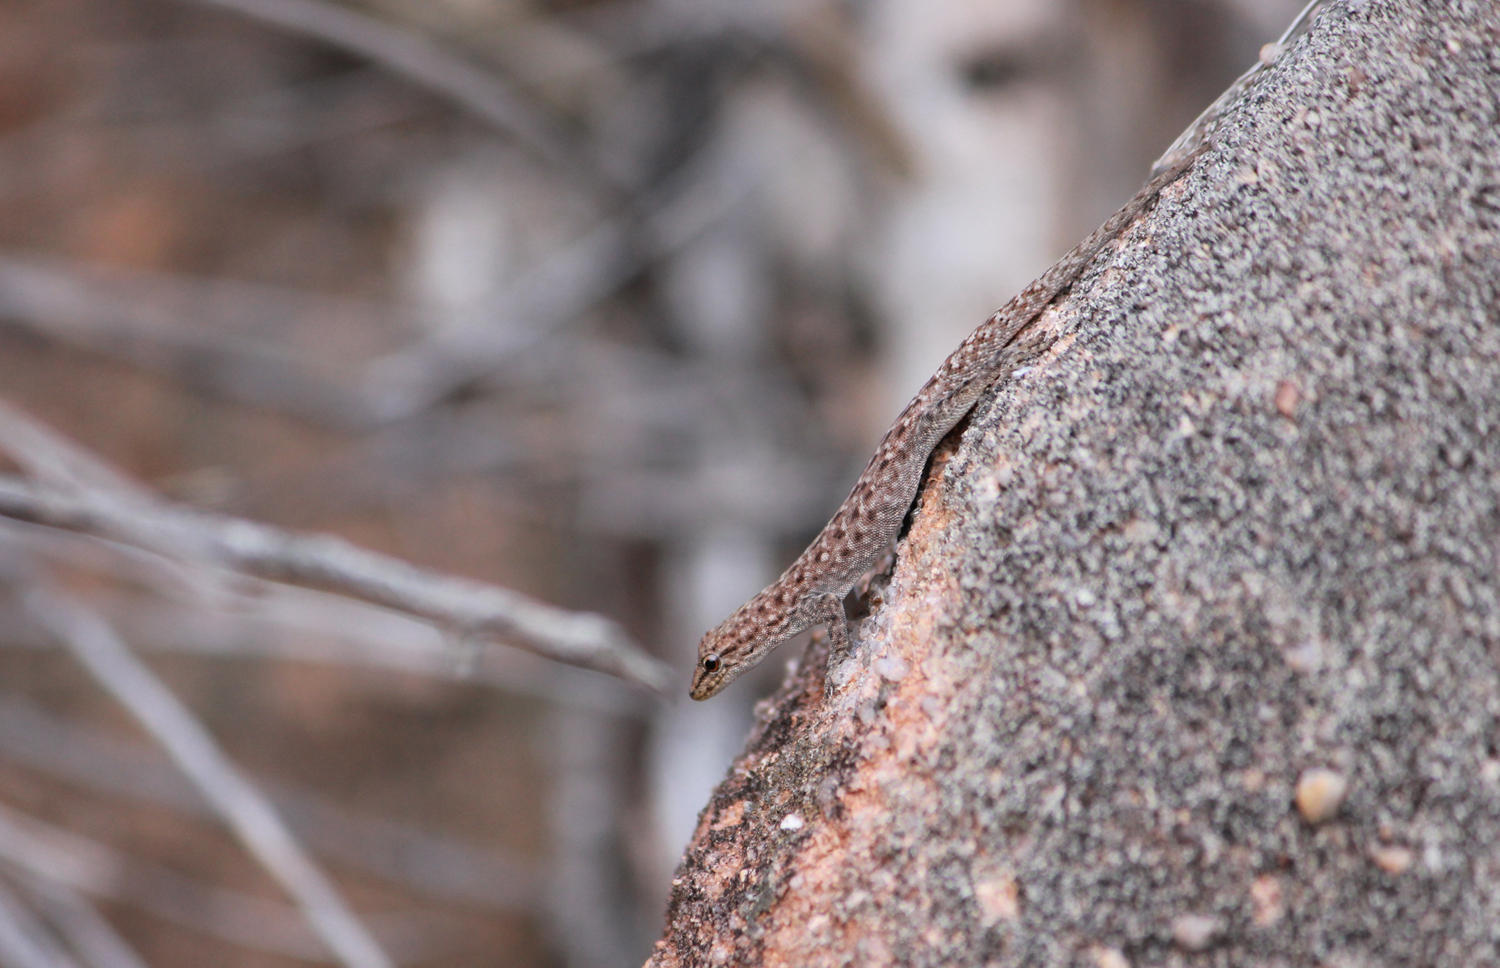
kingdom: Animalia
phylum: Chordata
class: Squamata
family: Gekkonidae
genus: Lygodactylus
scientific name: Lygodactylus soutpansbergensis
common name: Soutpansberg dwarf gecko
